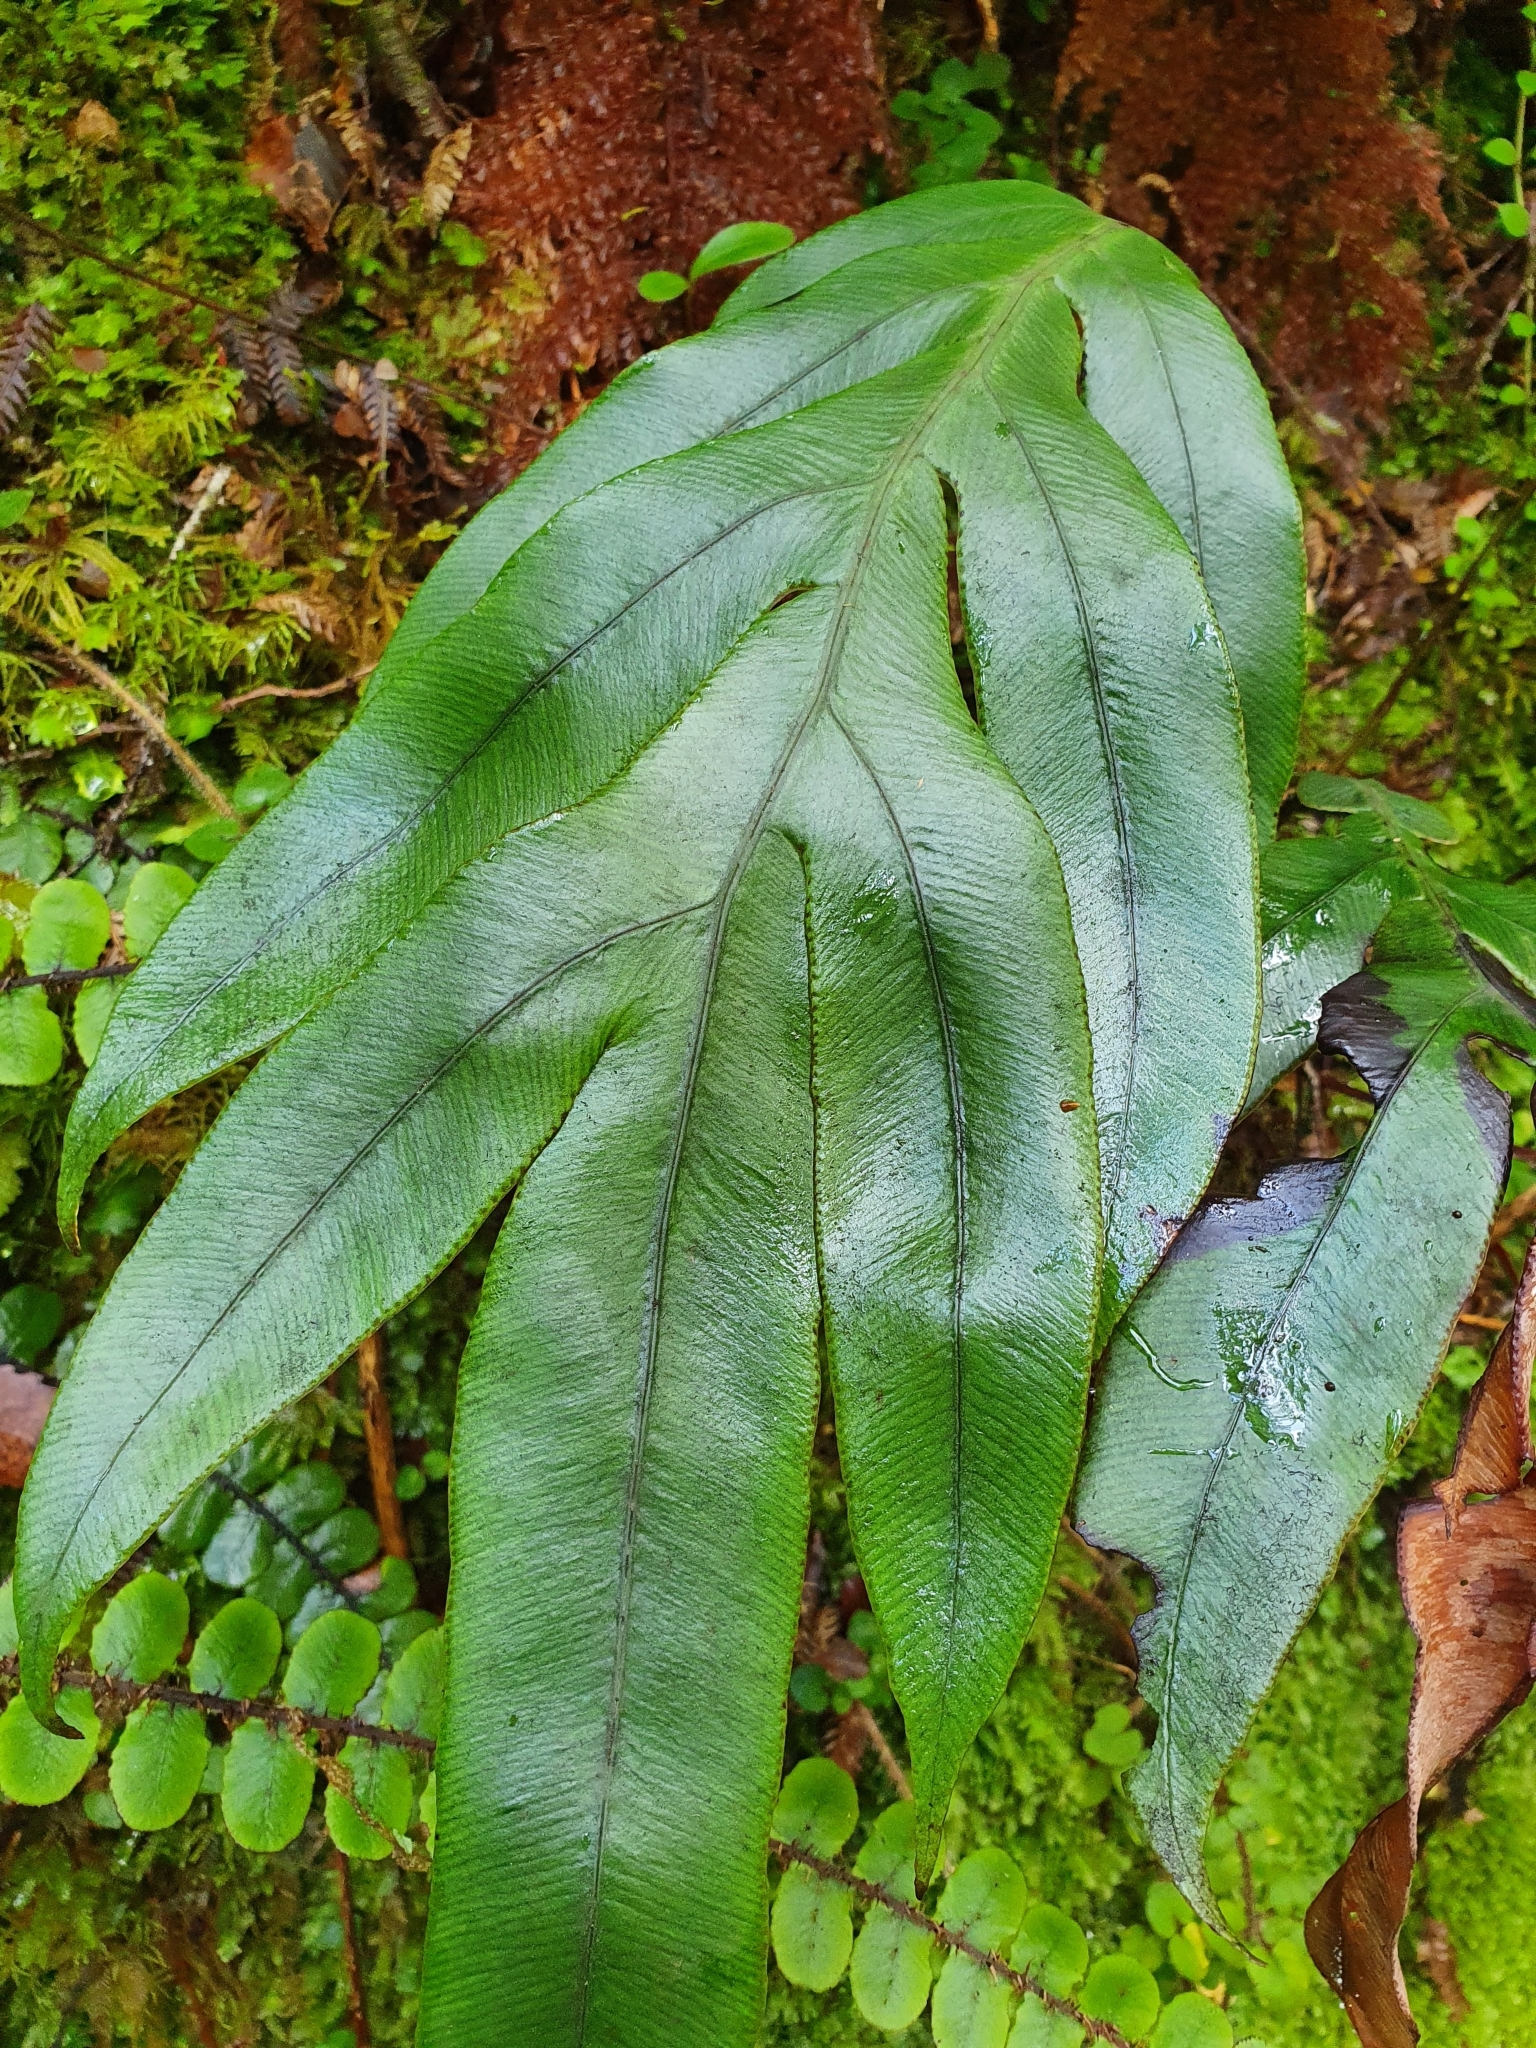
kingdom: Plantae
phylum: Tracheophyta
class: Polypodiopsida
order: Polypodiales
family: Blechnaceae
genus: Austroblechnum
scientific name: Austroblechnum colensoi
